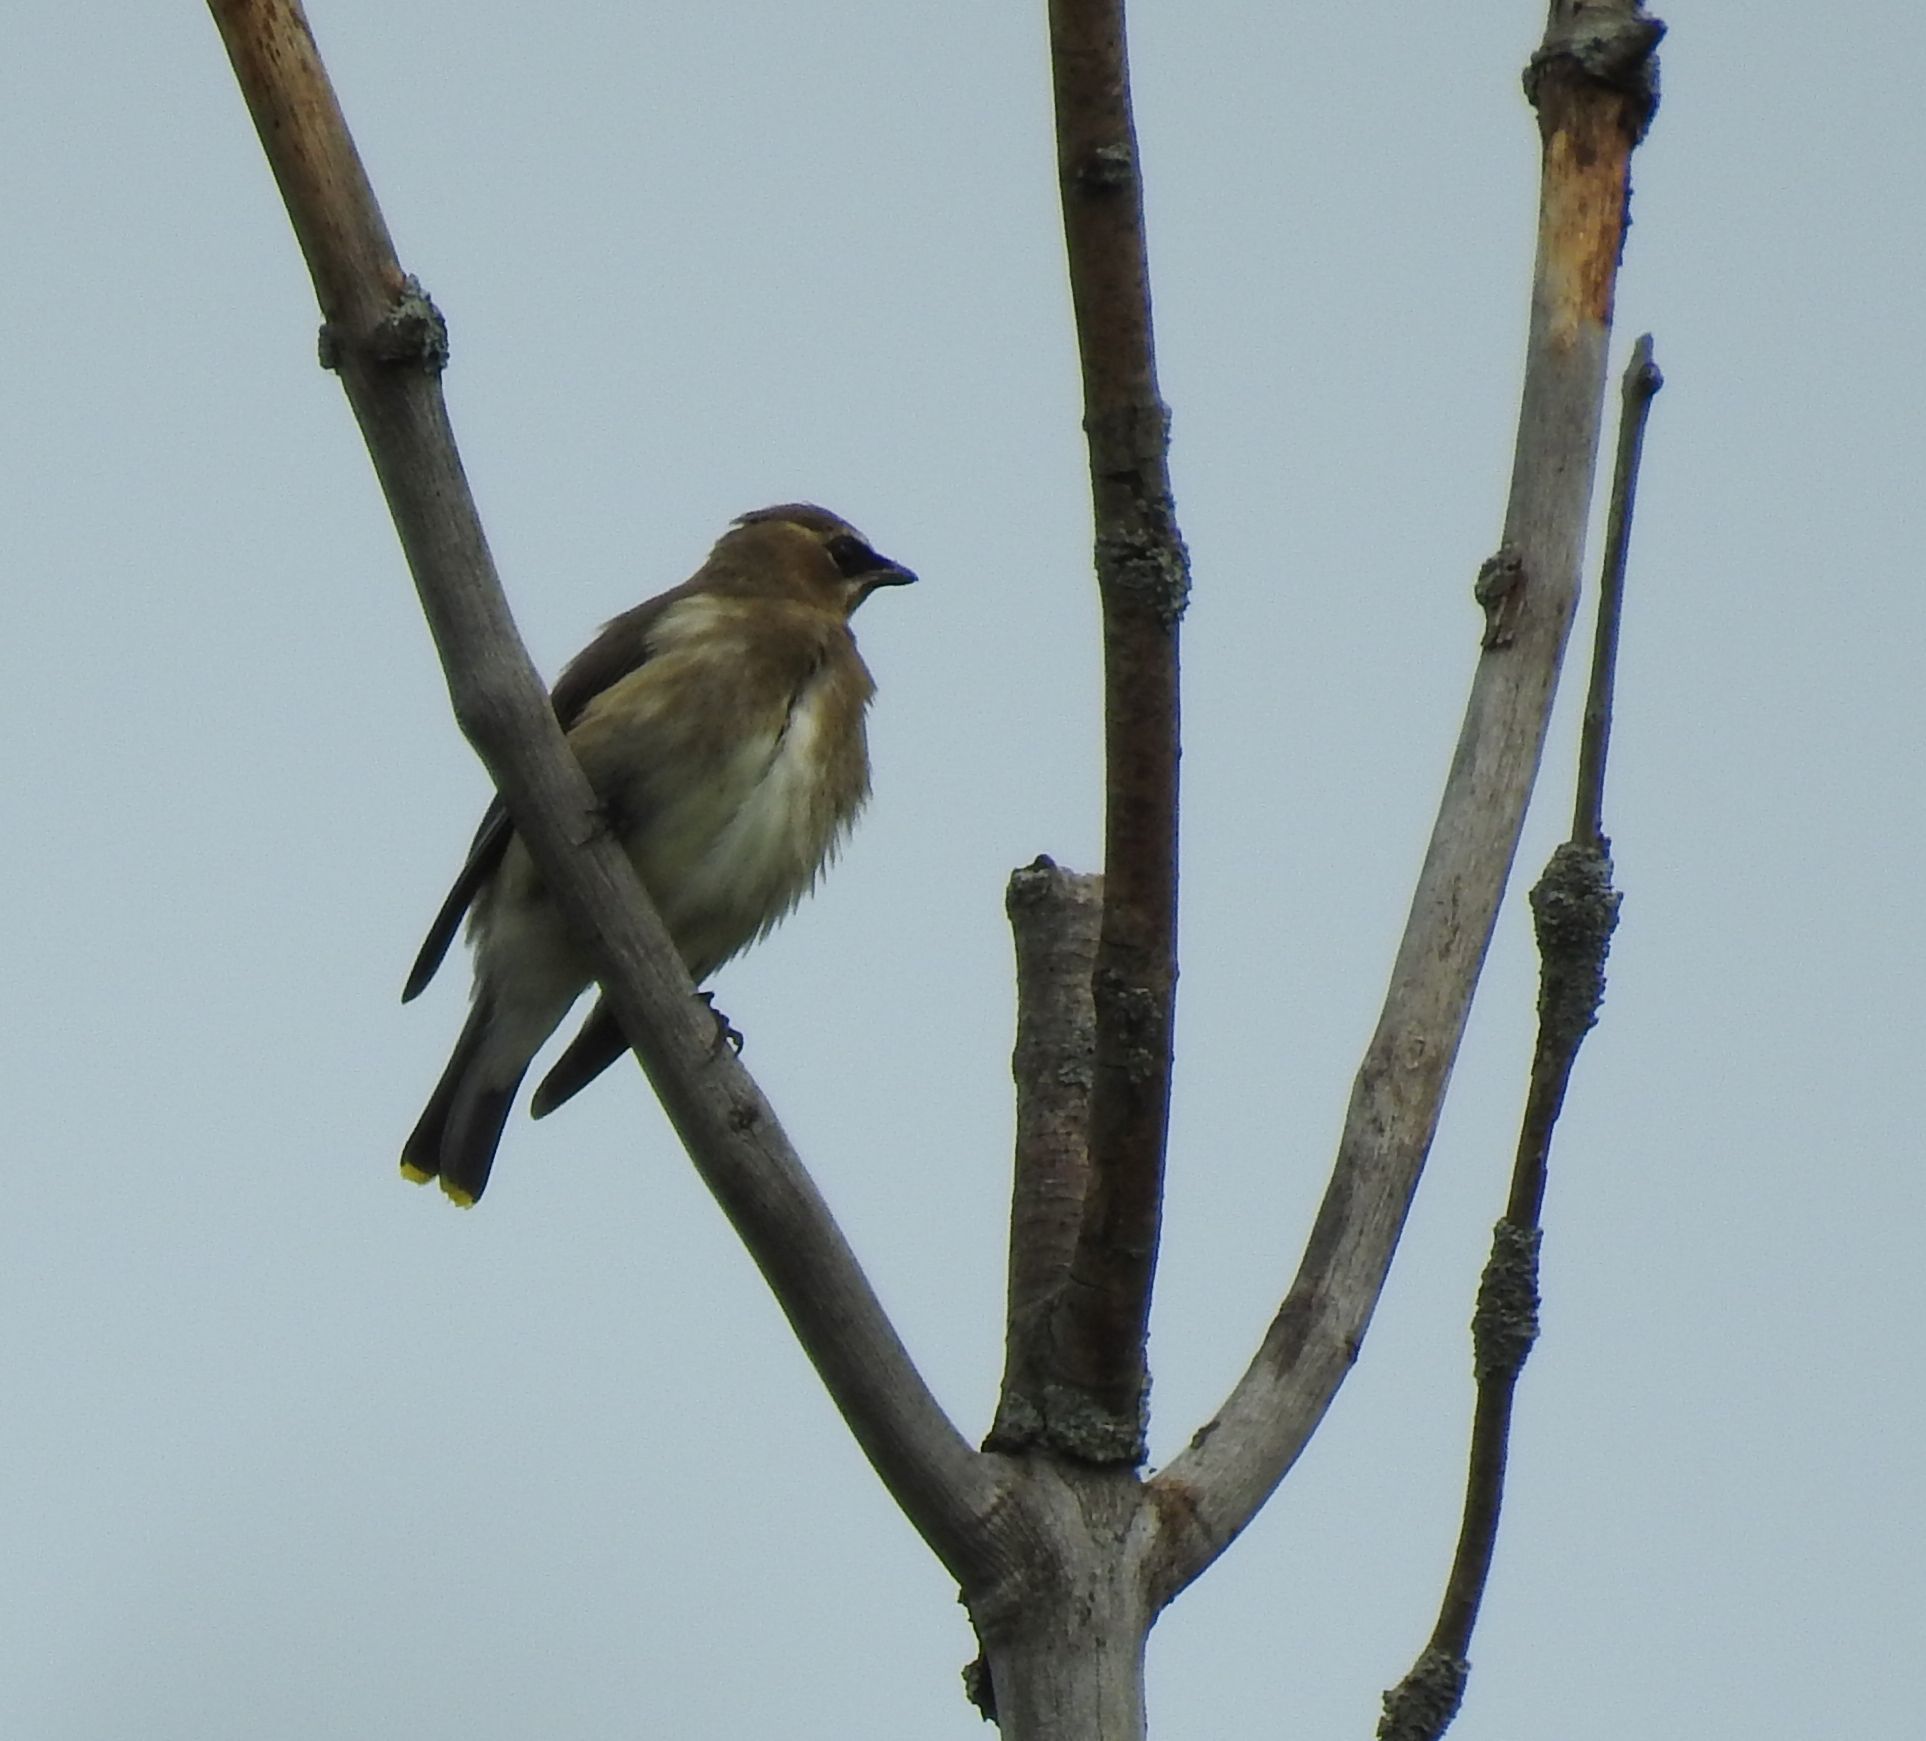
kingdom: Animalia
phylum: Chordata
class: Aves
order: Passeriformes
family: Bombycillidae
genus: Bombycilla
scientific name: Bombycilla cedrorum
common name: Cedar waxwing
